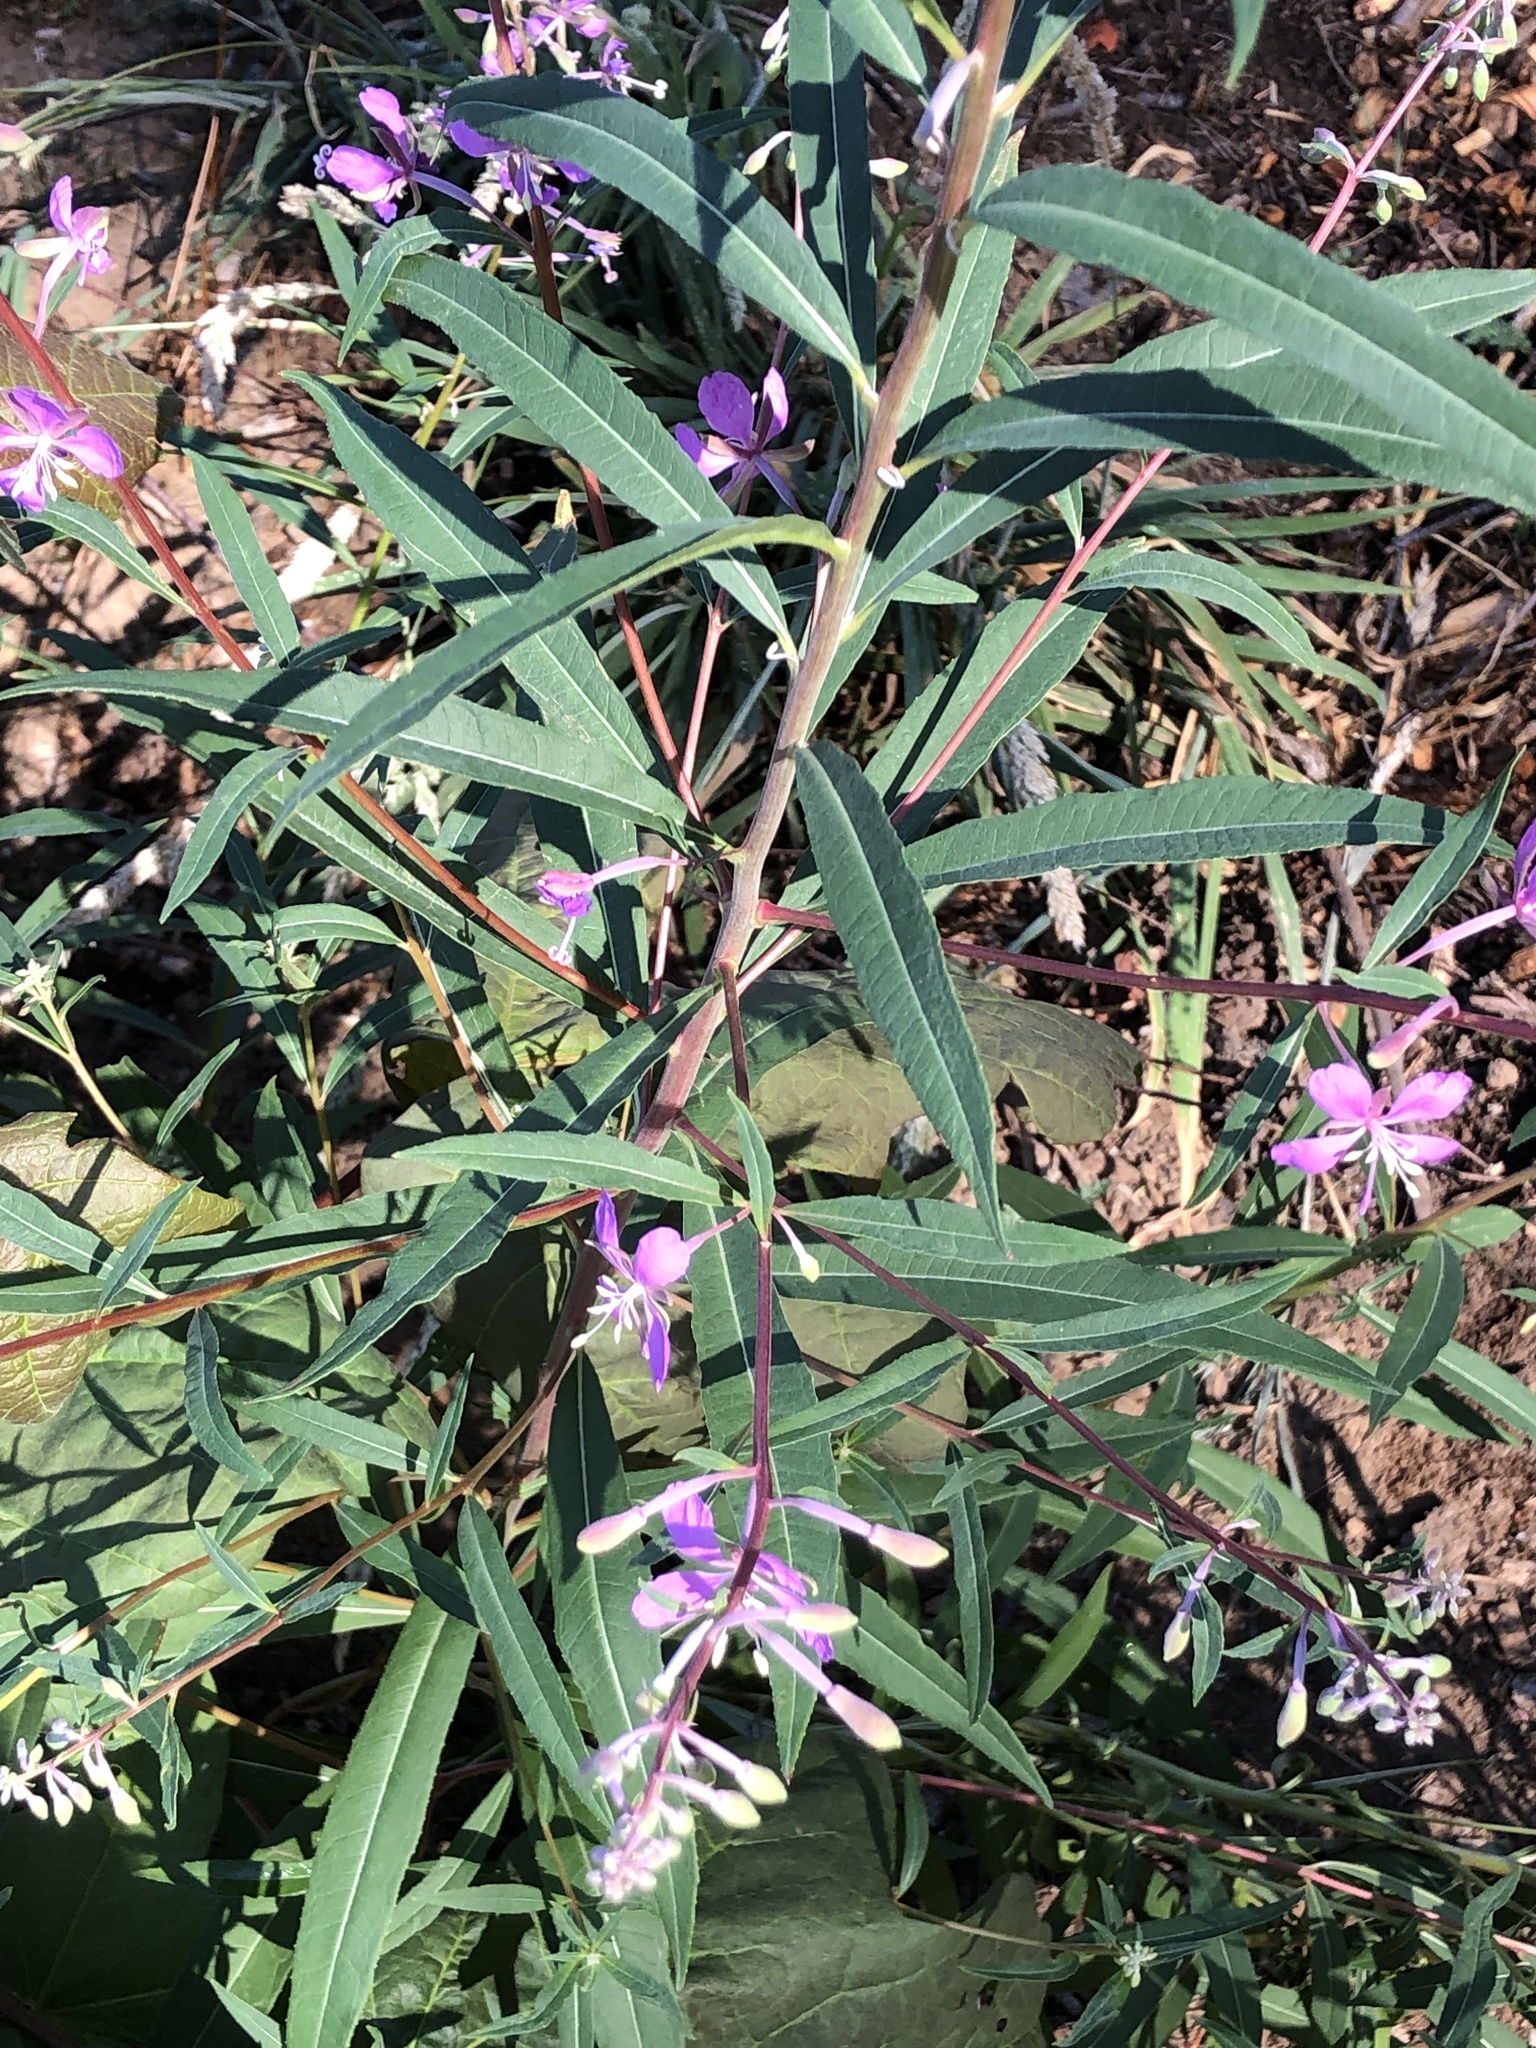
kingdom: Plantae
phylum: Tracheophyta
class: Magnoliopsida
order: Myrtales
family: Onagraceae
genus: Chamaenerion
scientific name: Chamaenerion angustifolium
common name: Fireweed
